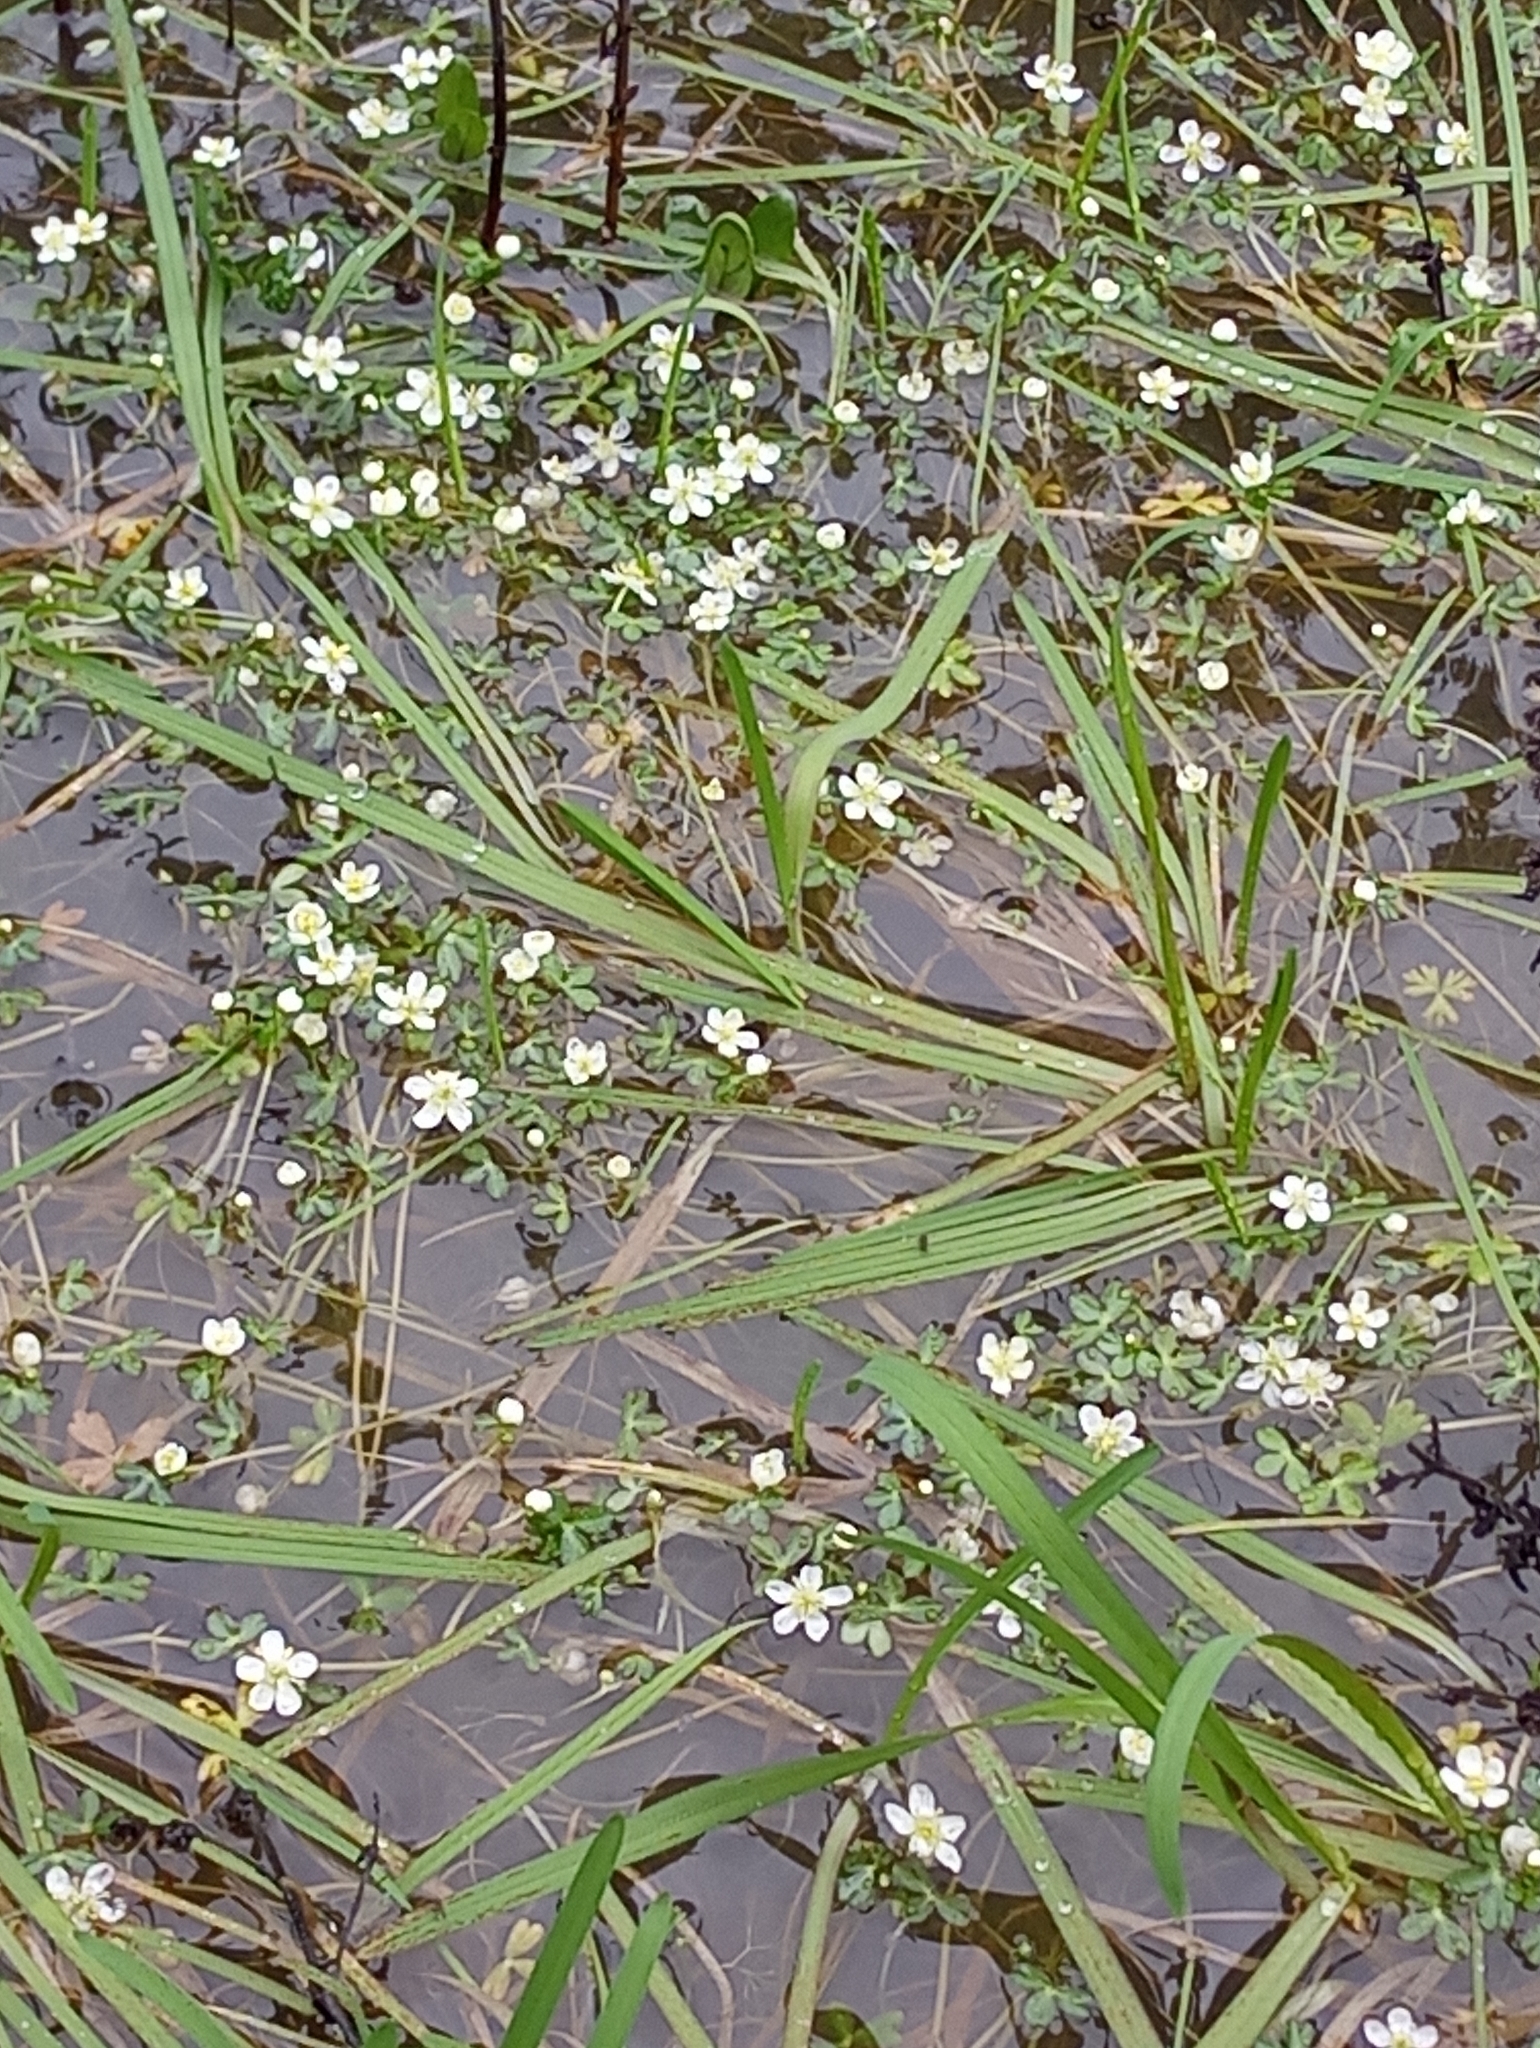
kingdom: Plantae
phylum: Tracheophyta
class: Magnoliopsida
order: Ranunculales
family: Ranunculaceae
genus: Ranunculus
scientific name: Ranunculus lobbii
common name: Lobb's buttercup
